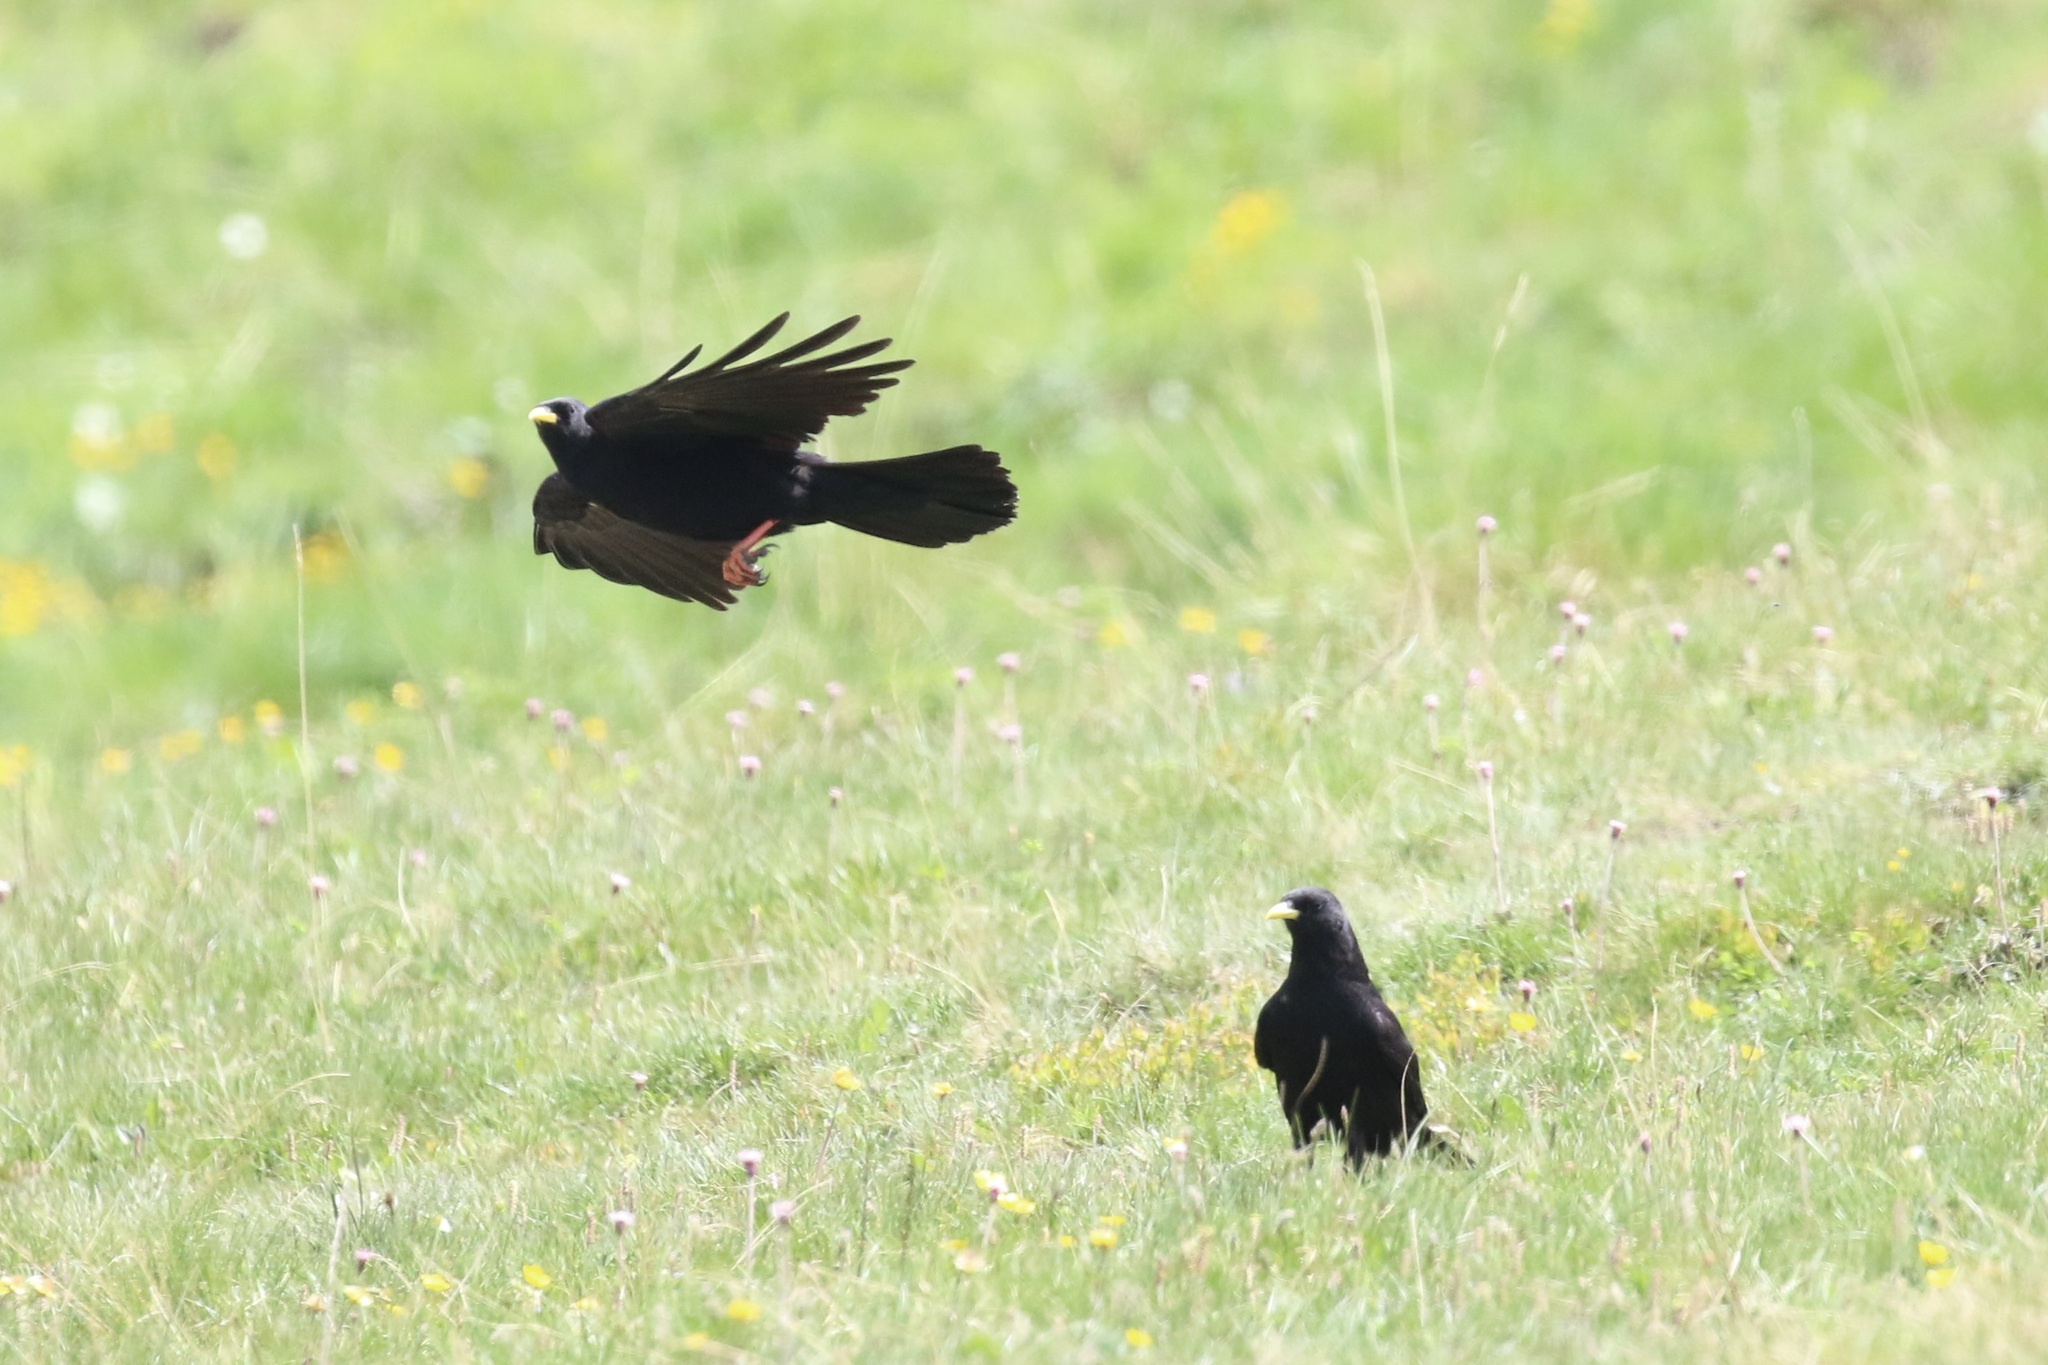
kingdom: Animalia
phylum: Chordata
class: Aves
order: Passeriformes
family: Corvidae
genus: Pyrrhocorax
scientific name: Pyrrhocorax graculus
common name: Alpine chough
